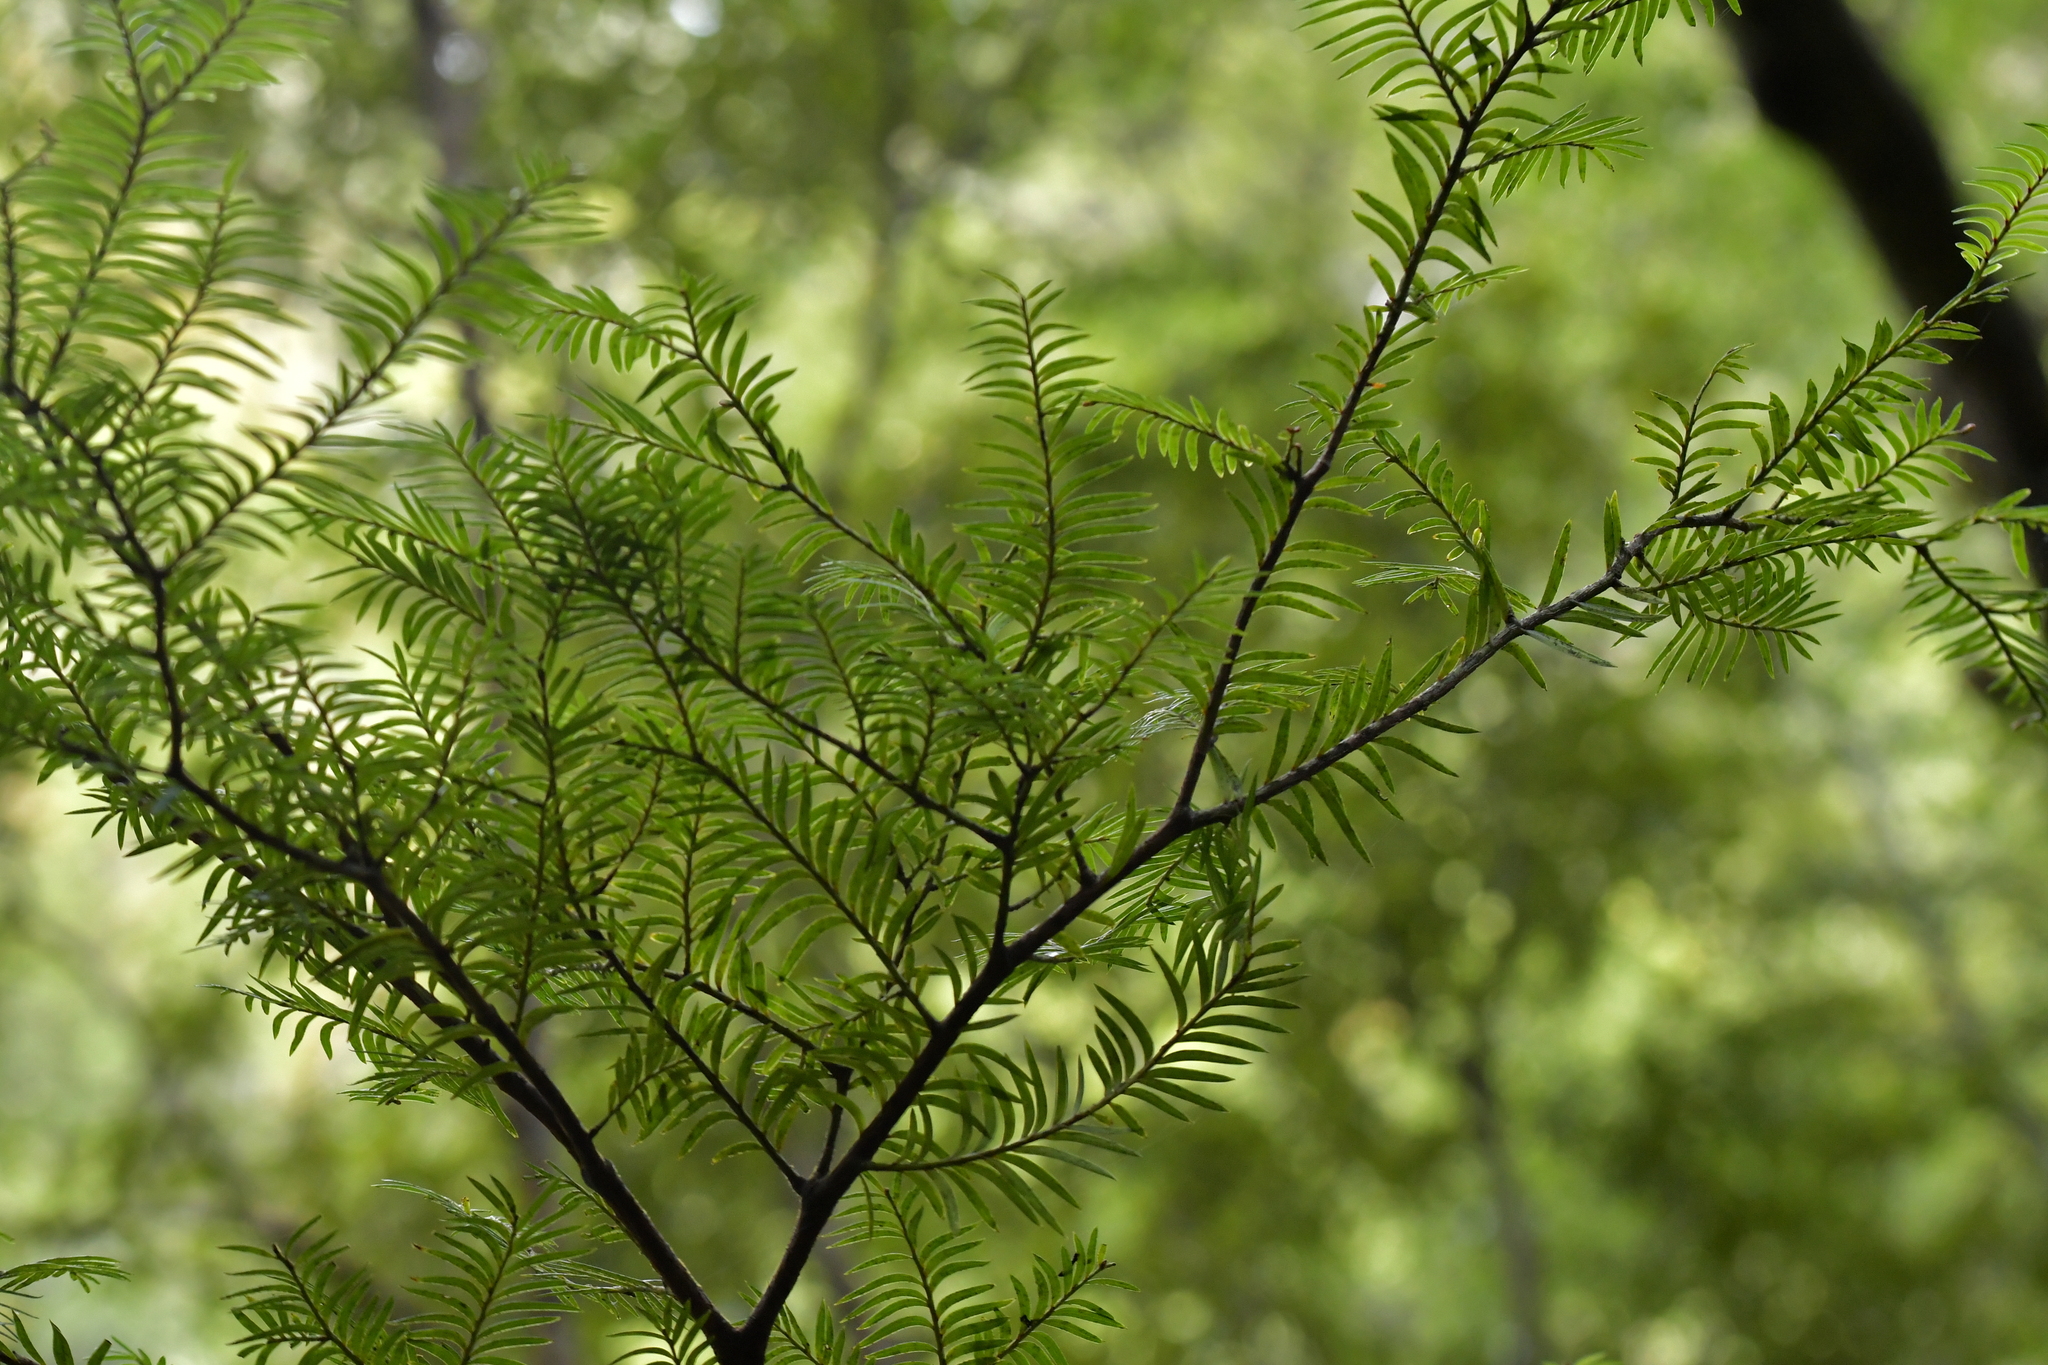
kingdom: Plantae
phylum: Tracheophyta
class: Pinopsida
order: Pinales
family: Podocarpaceae
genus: Prumnopitys
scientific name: Prumnopitys ferruginea
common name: Brown pine
